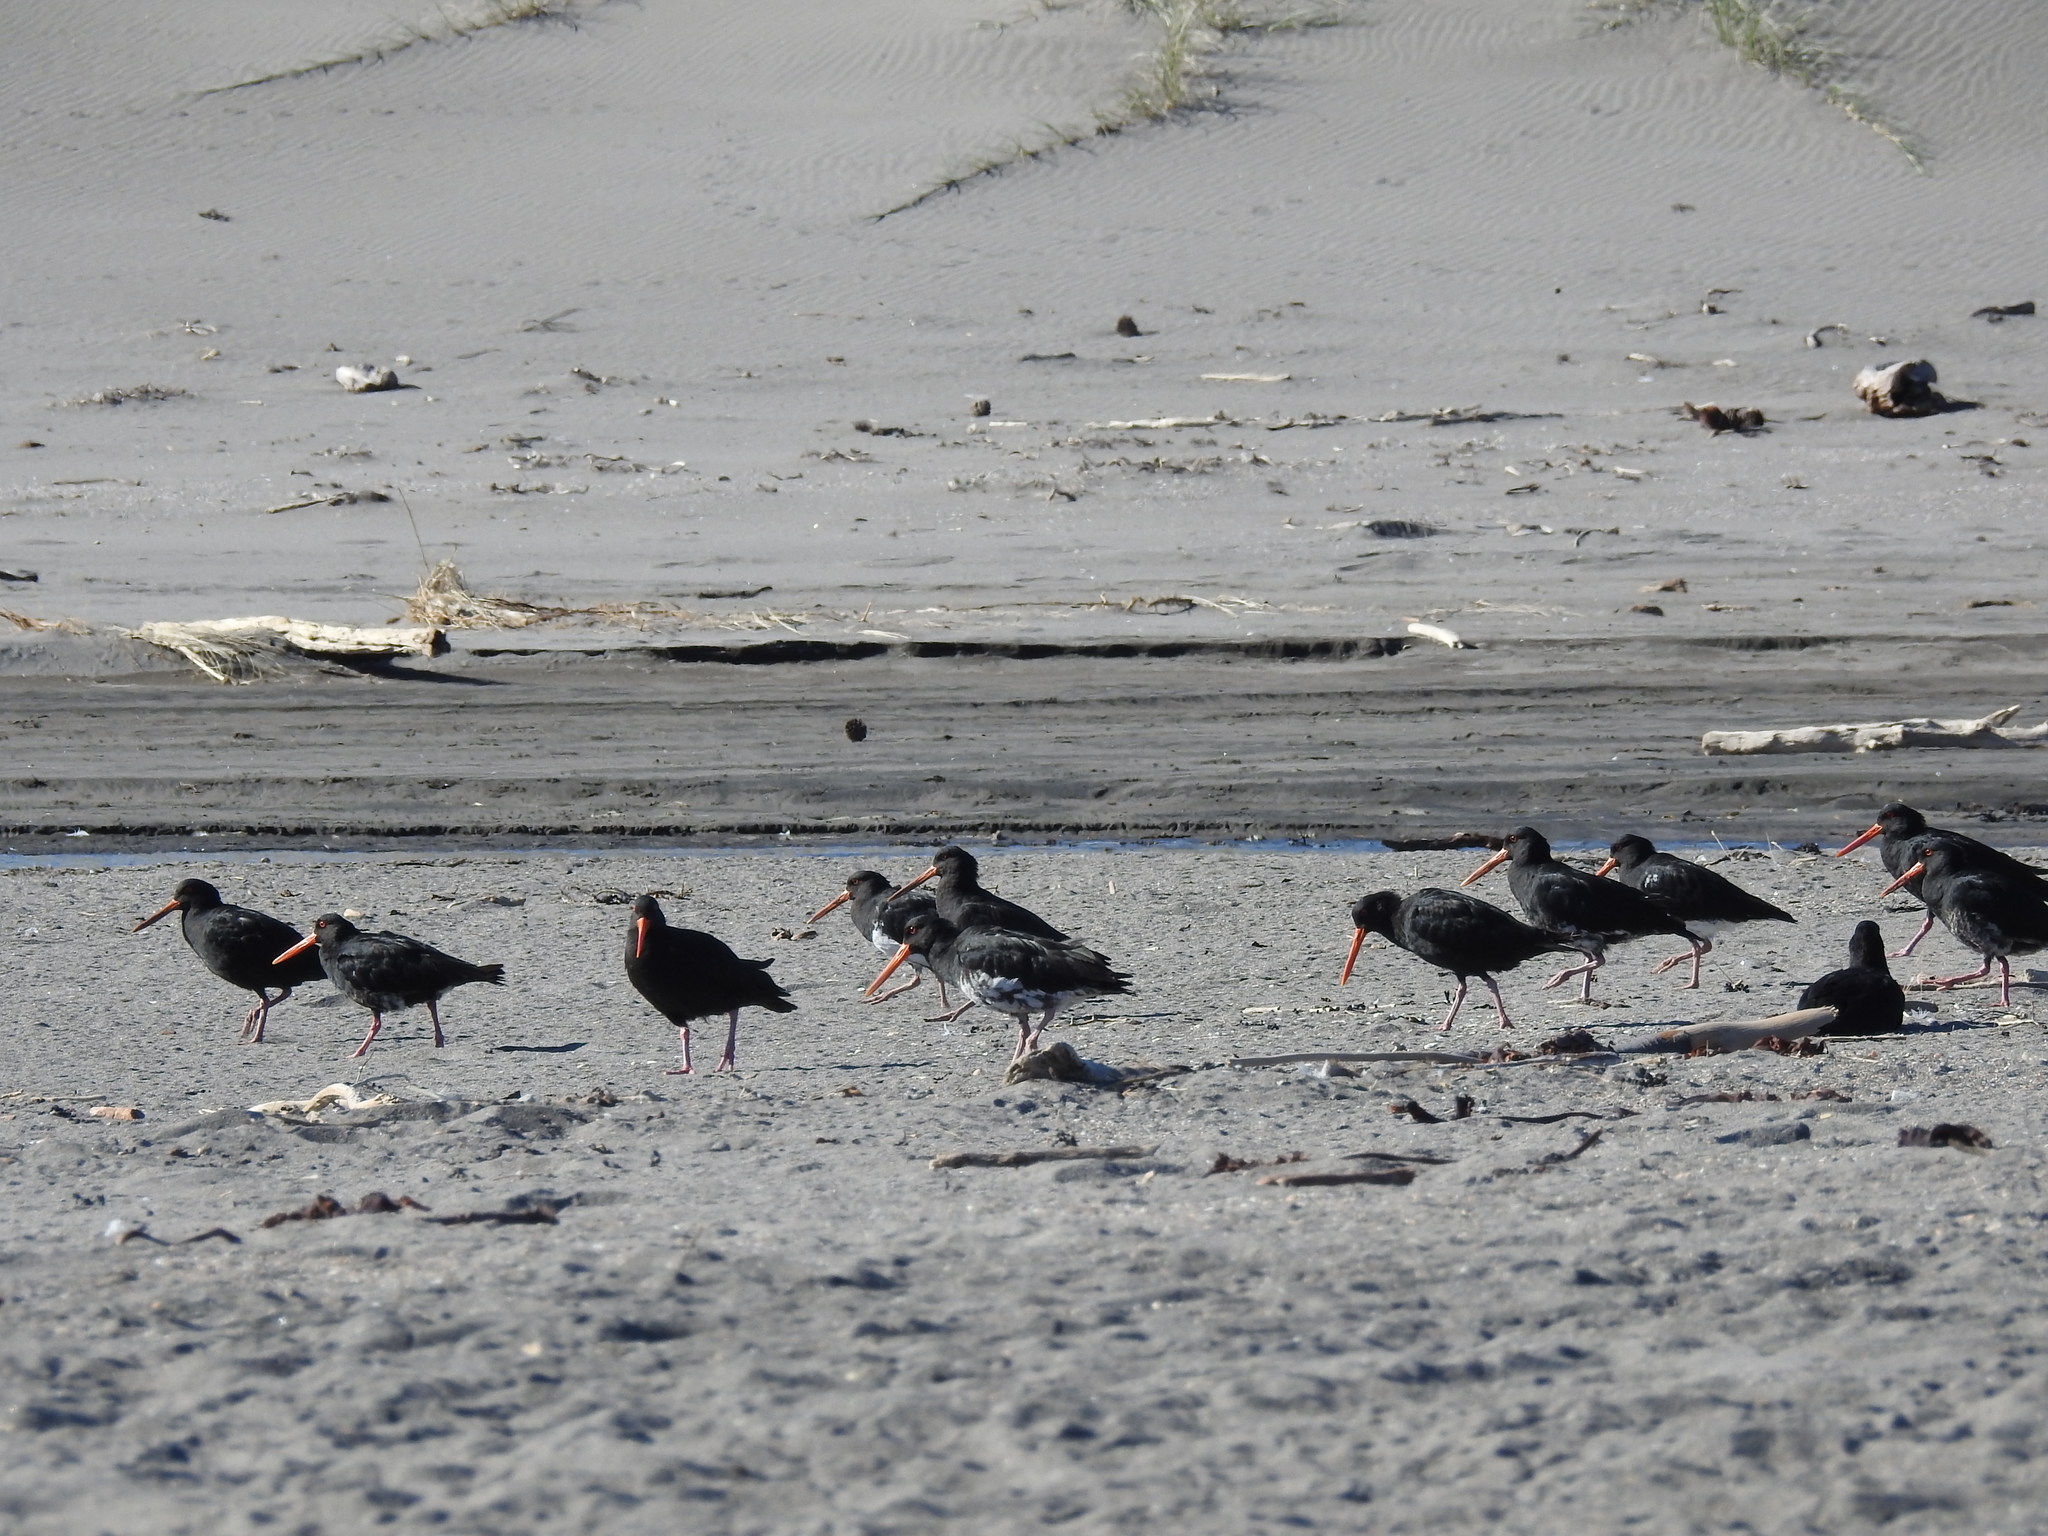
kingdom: Animalia
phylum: Chordata
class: Aves
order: Charadriiformes
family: Haematopodidae
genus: Haematopus
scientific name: Haematopus unicolor
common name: Variable oystercatcher
